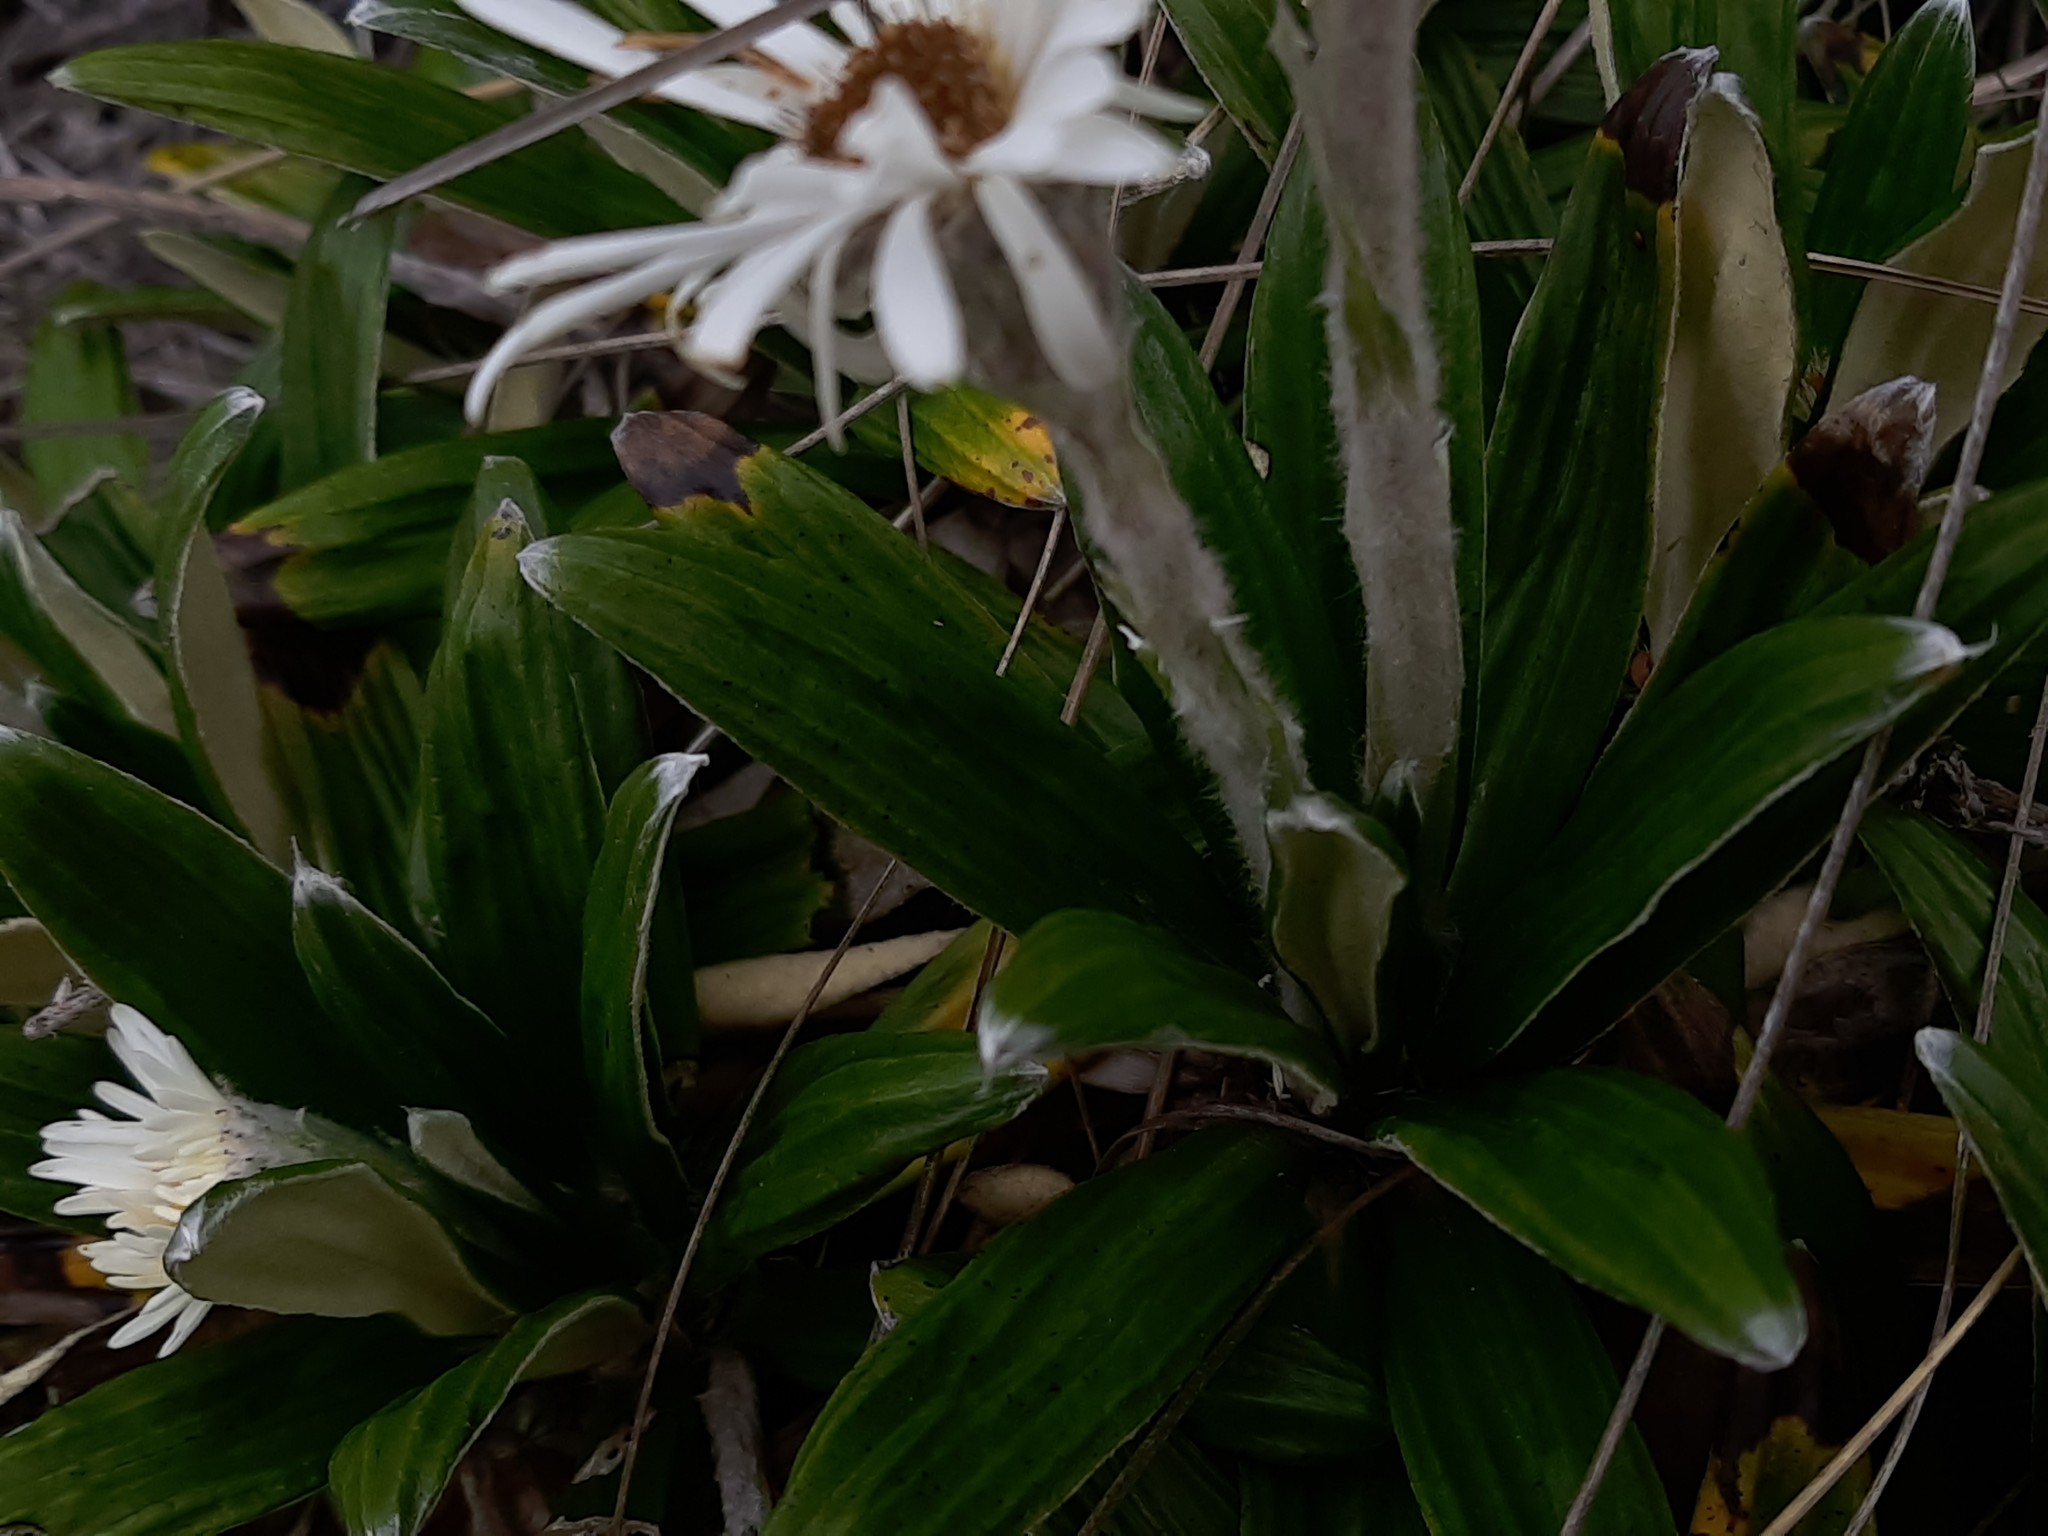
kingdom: Plantae
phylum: Tracheophyta
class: Magnoliopsida
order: Asterales
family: Asteraceae
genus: Celmisia
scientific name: Celmisia spectabilis
